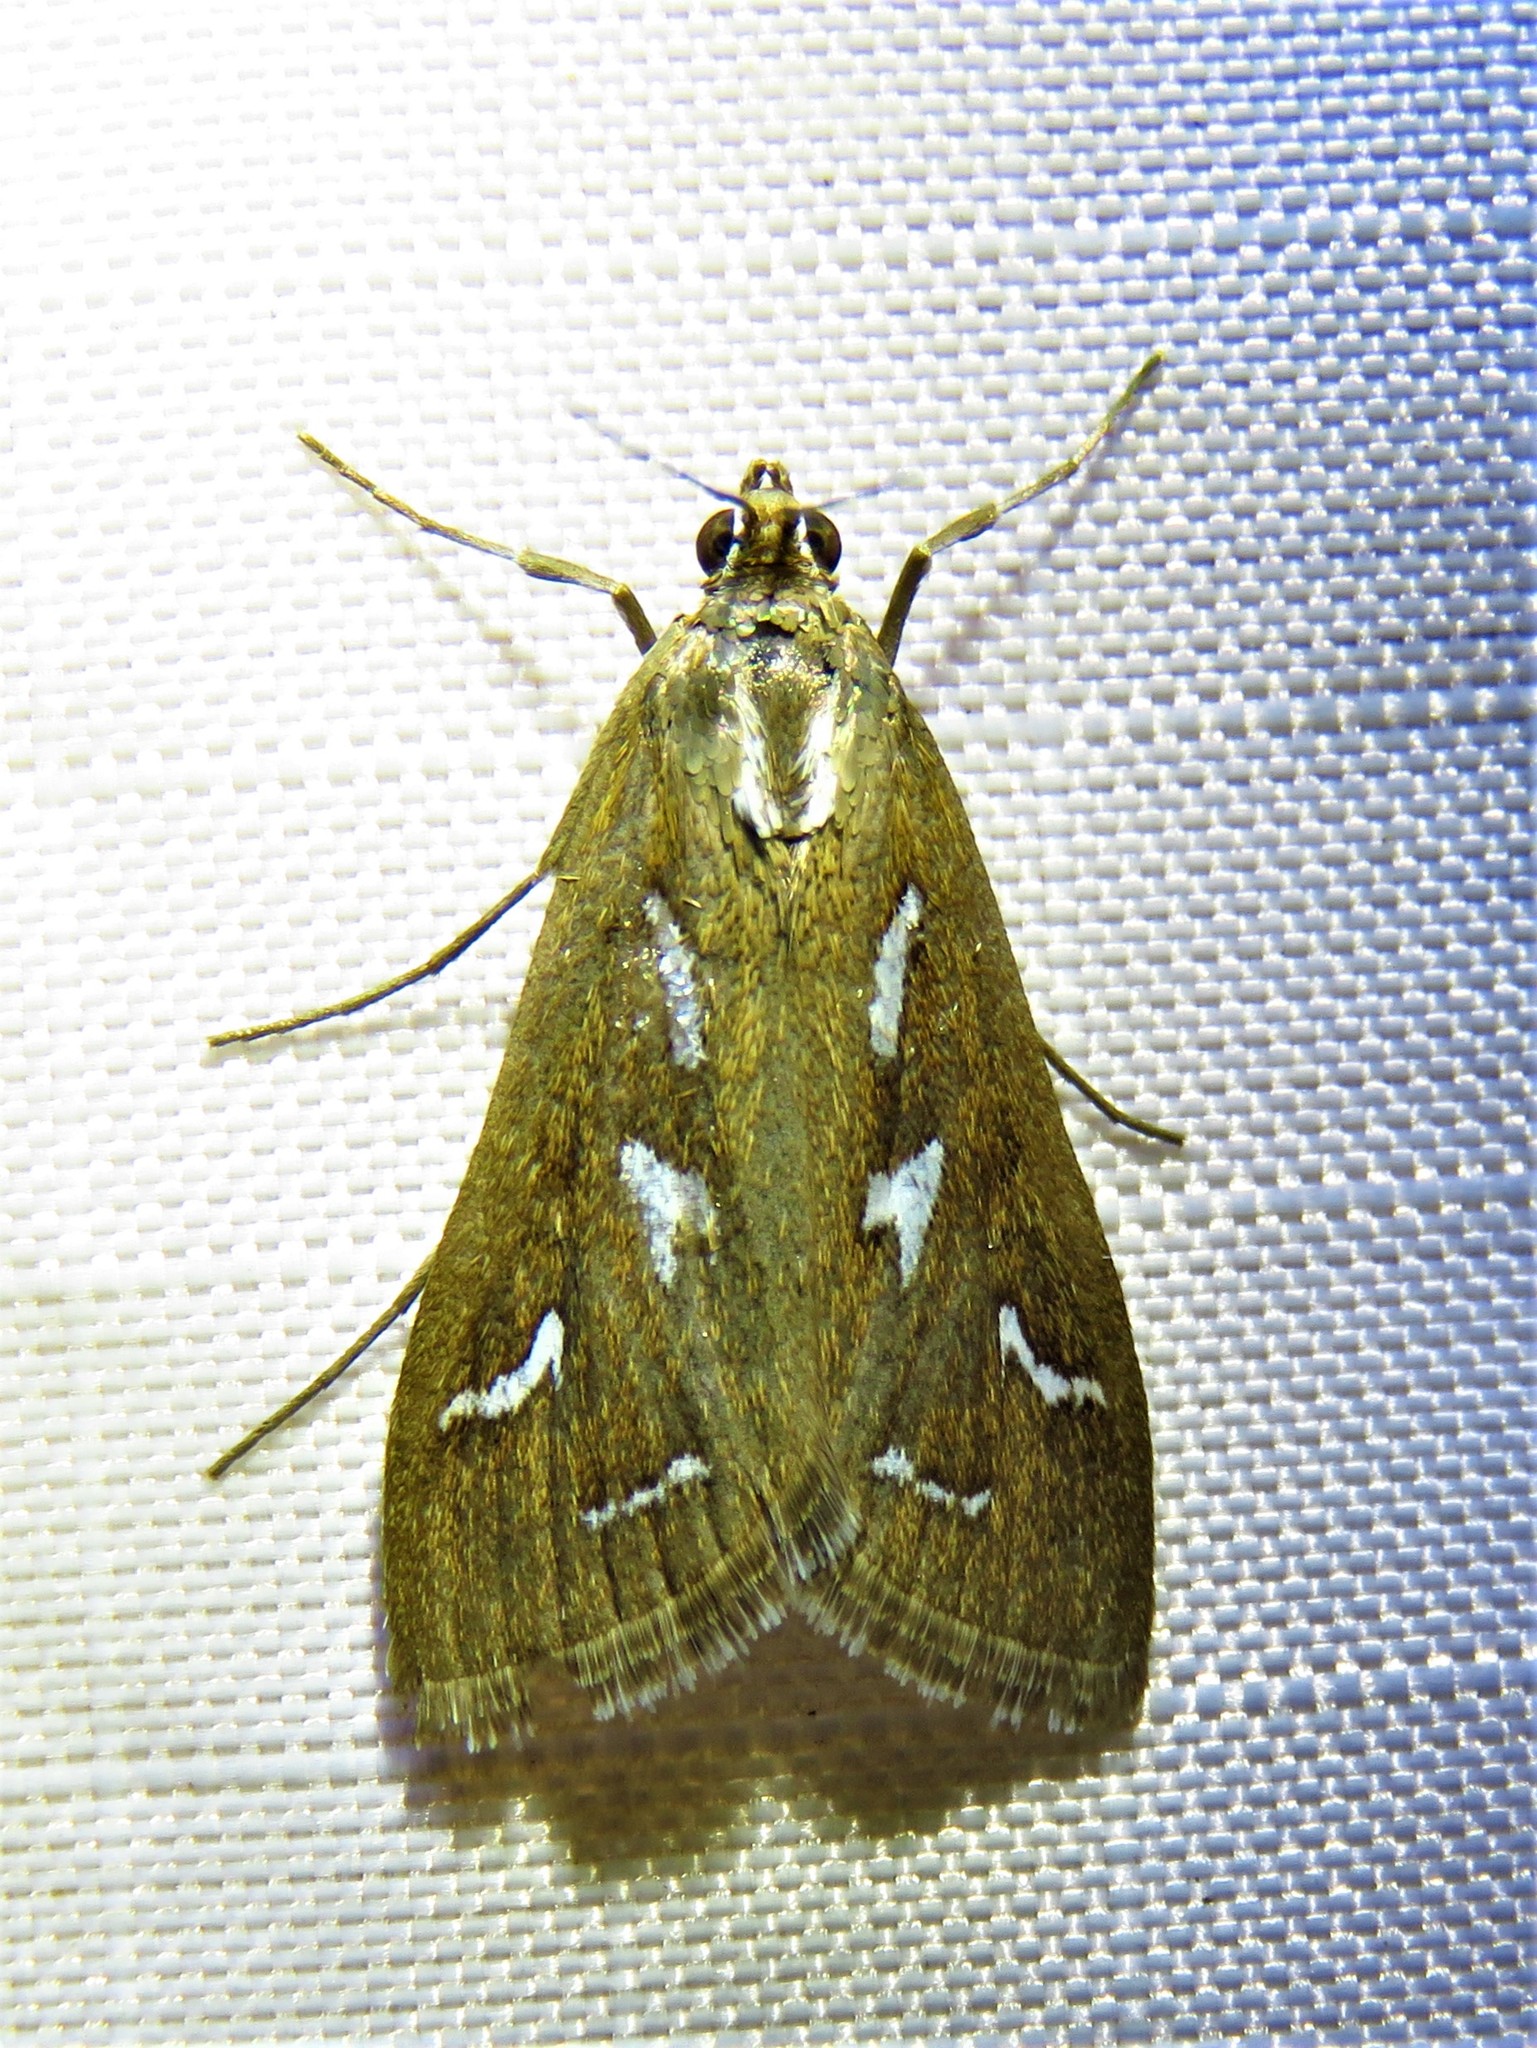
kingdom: Animalia
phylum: Arthropoda
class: Insecta
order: Lepidoptera
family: Crambidae
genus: Diastictis
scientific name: Diastictis fracturalis
